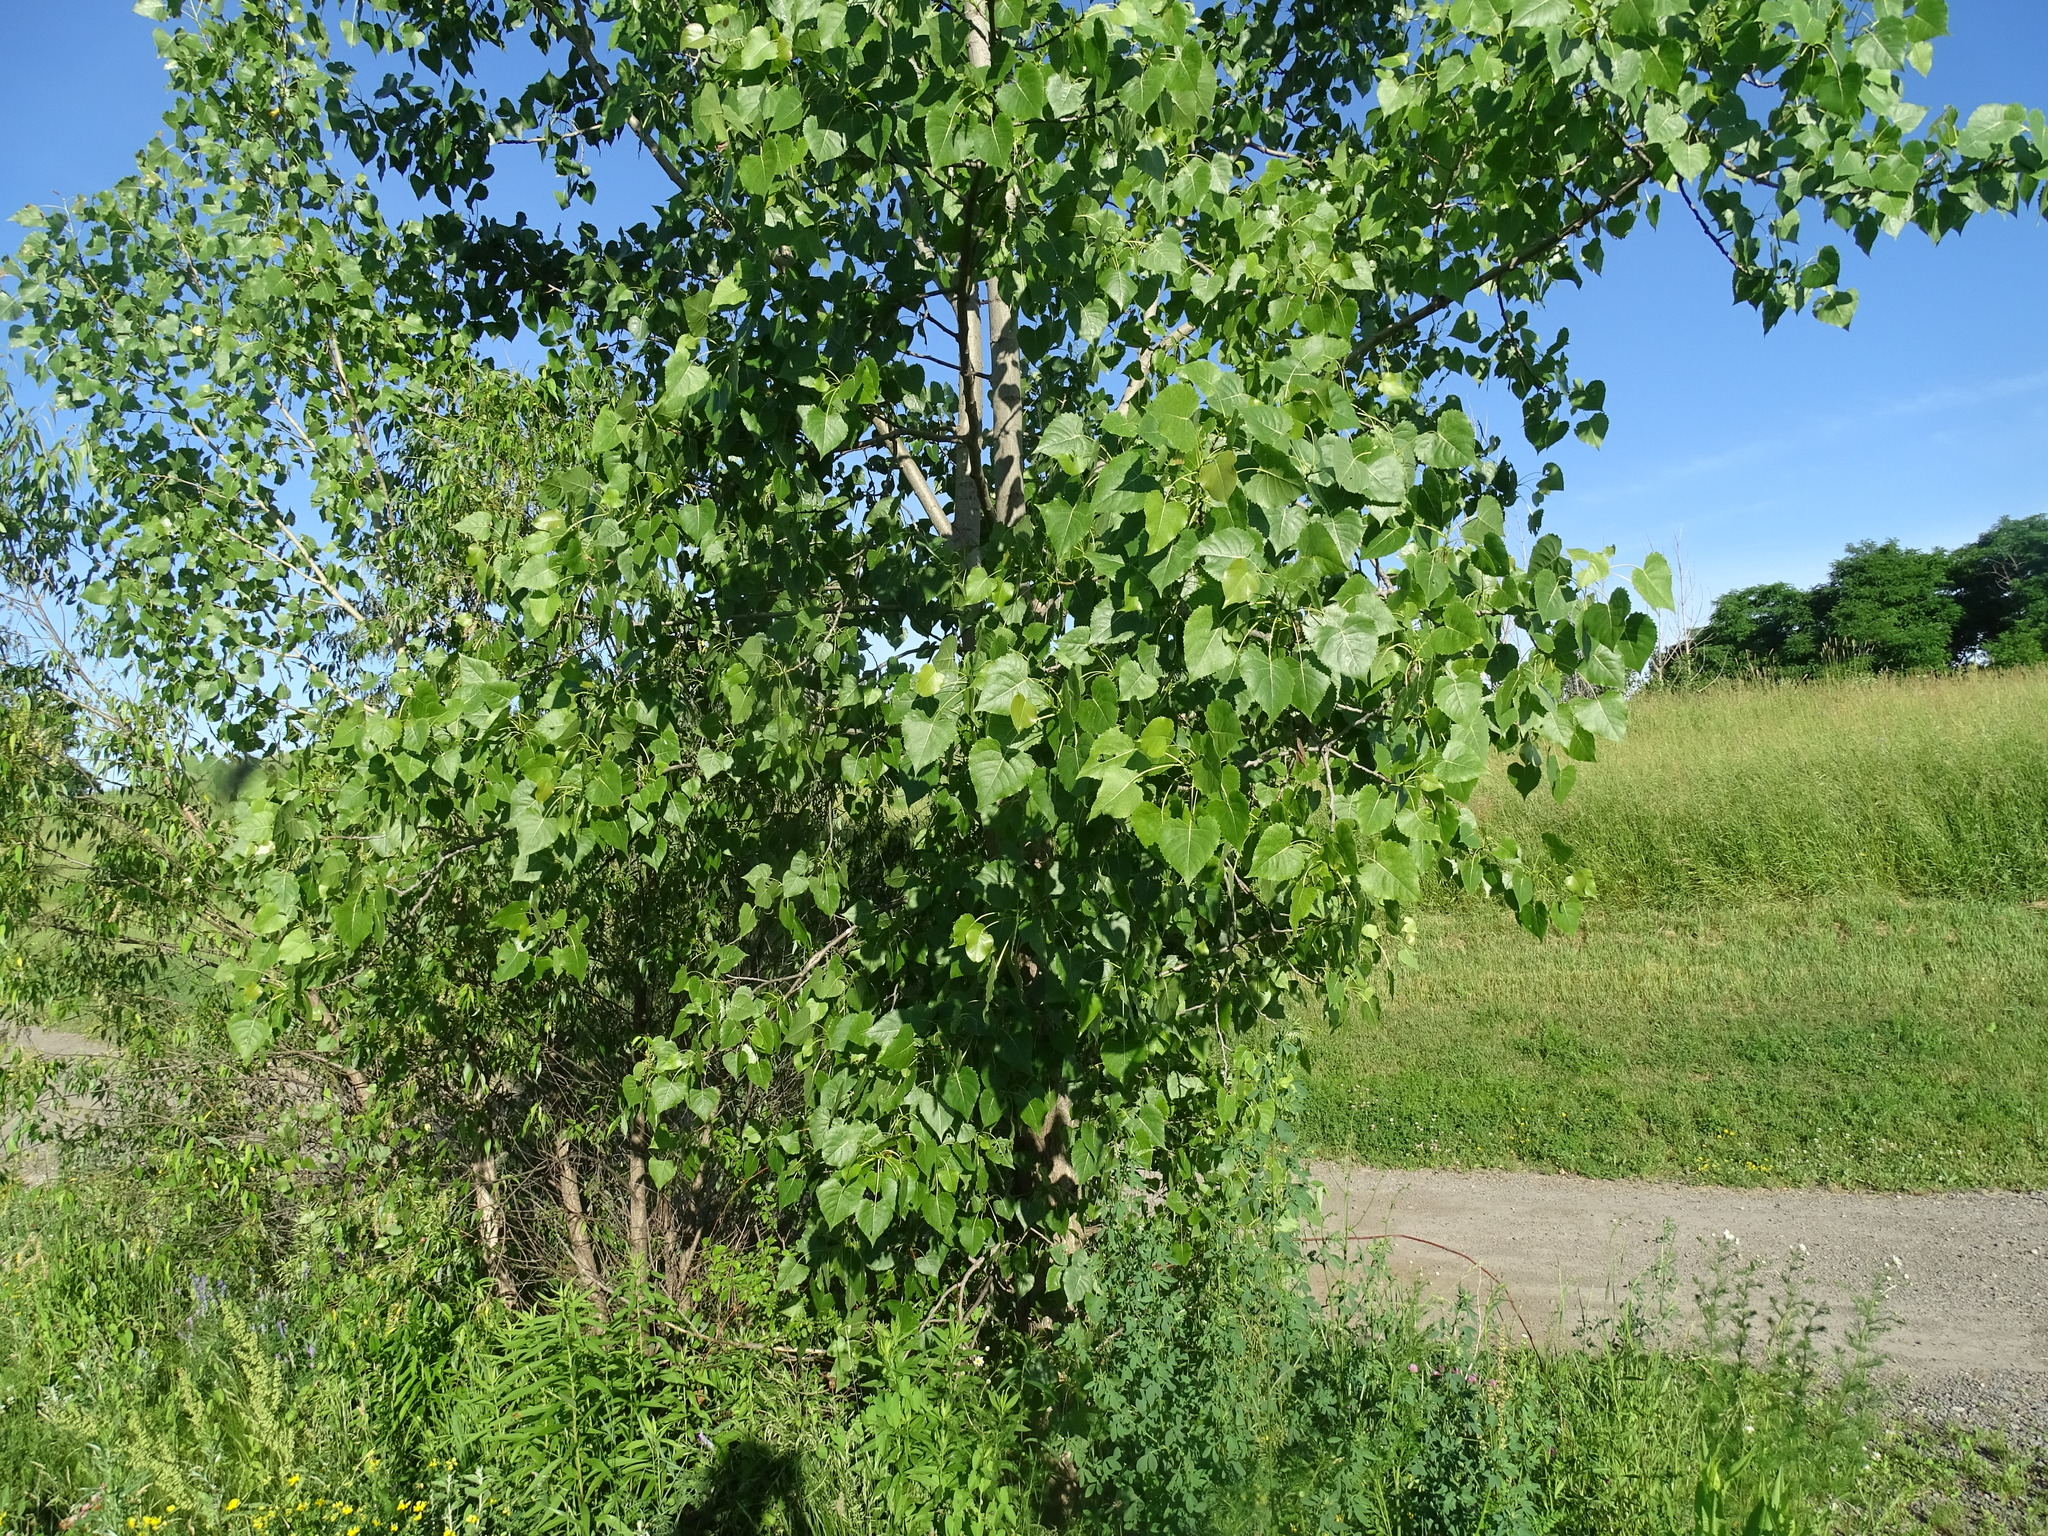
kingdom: Plantae
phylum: Tracheophyta
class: Magnoliopsida
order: Malpighiales
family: Salicaceae
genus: Populus
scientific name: Populus deltoides
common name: Eastern cottonwood
